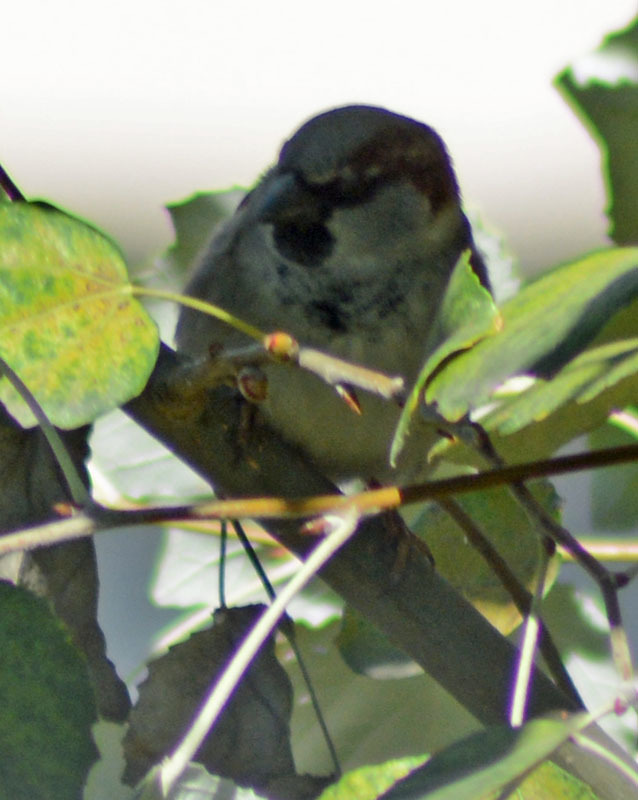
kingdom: Animalia
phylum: Chordata
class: Aves
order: Passeriformes
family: Passeridae
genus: Passer
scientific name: Passer domesticus
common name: House sparrow
